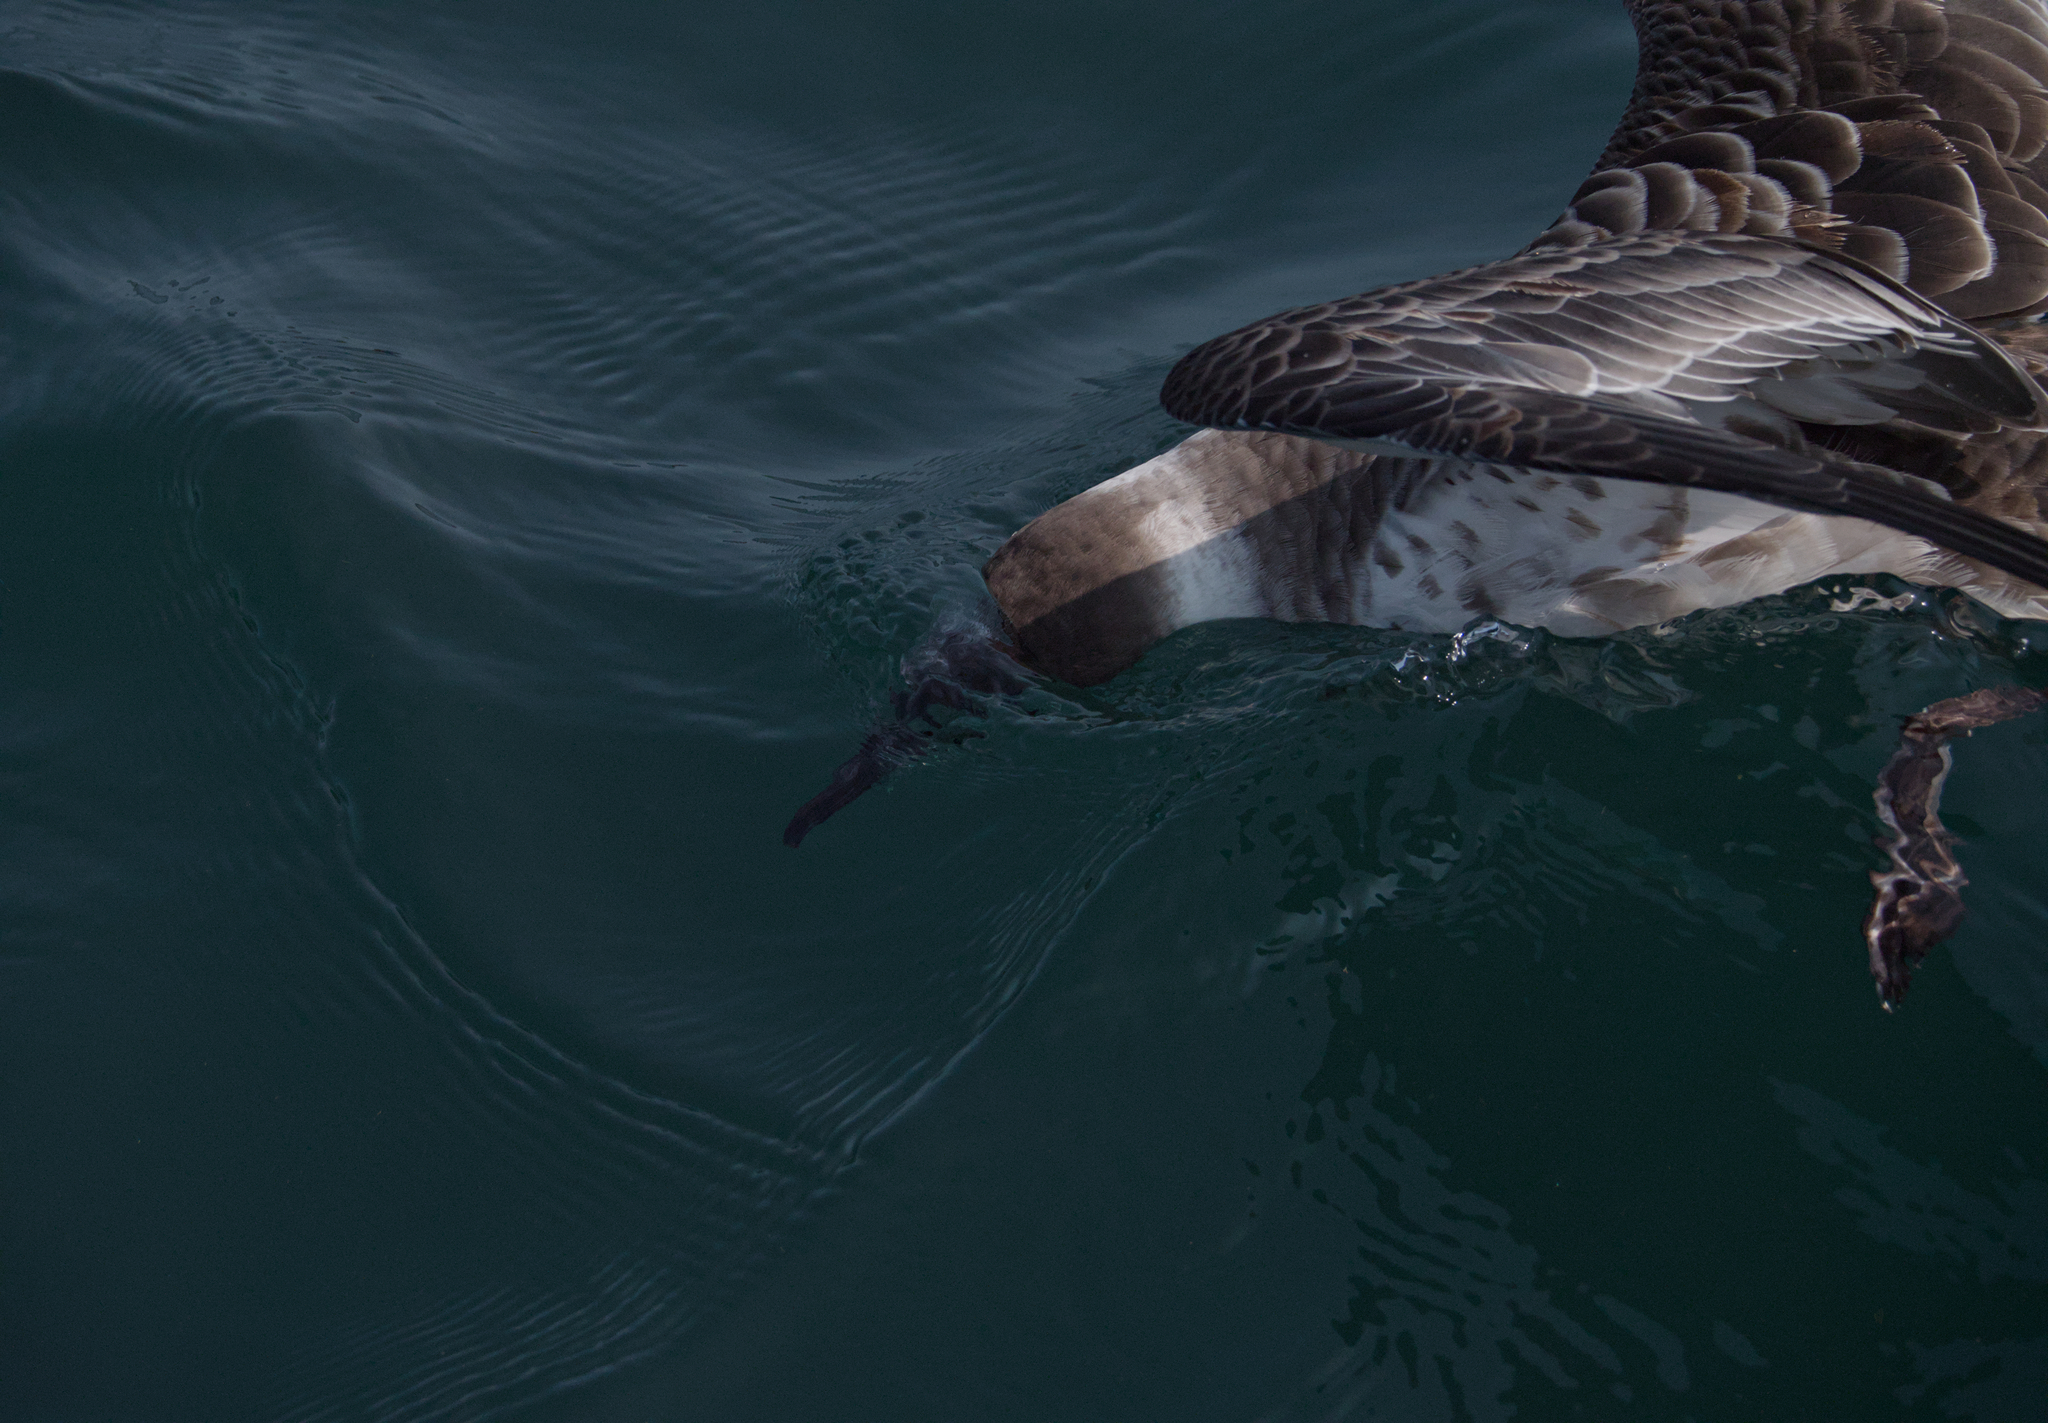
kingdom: Animalia
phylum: Chordata
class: Aves
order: Procellariiformes
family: Procellariidae
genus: Puffinus
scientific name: Puffinus gravis
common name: Great shearwater
